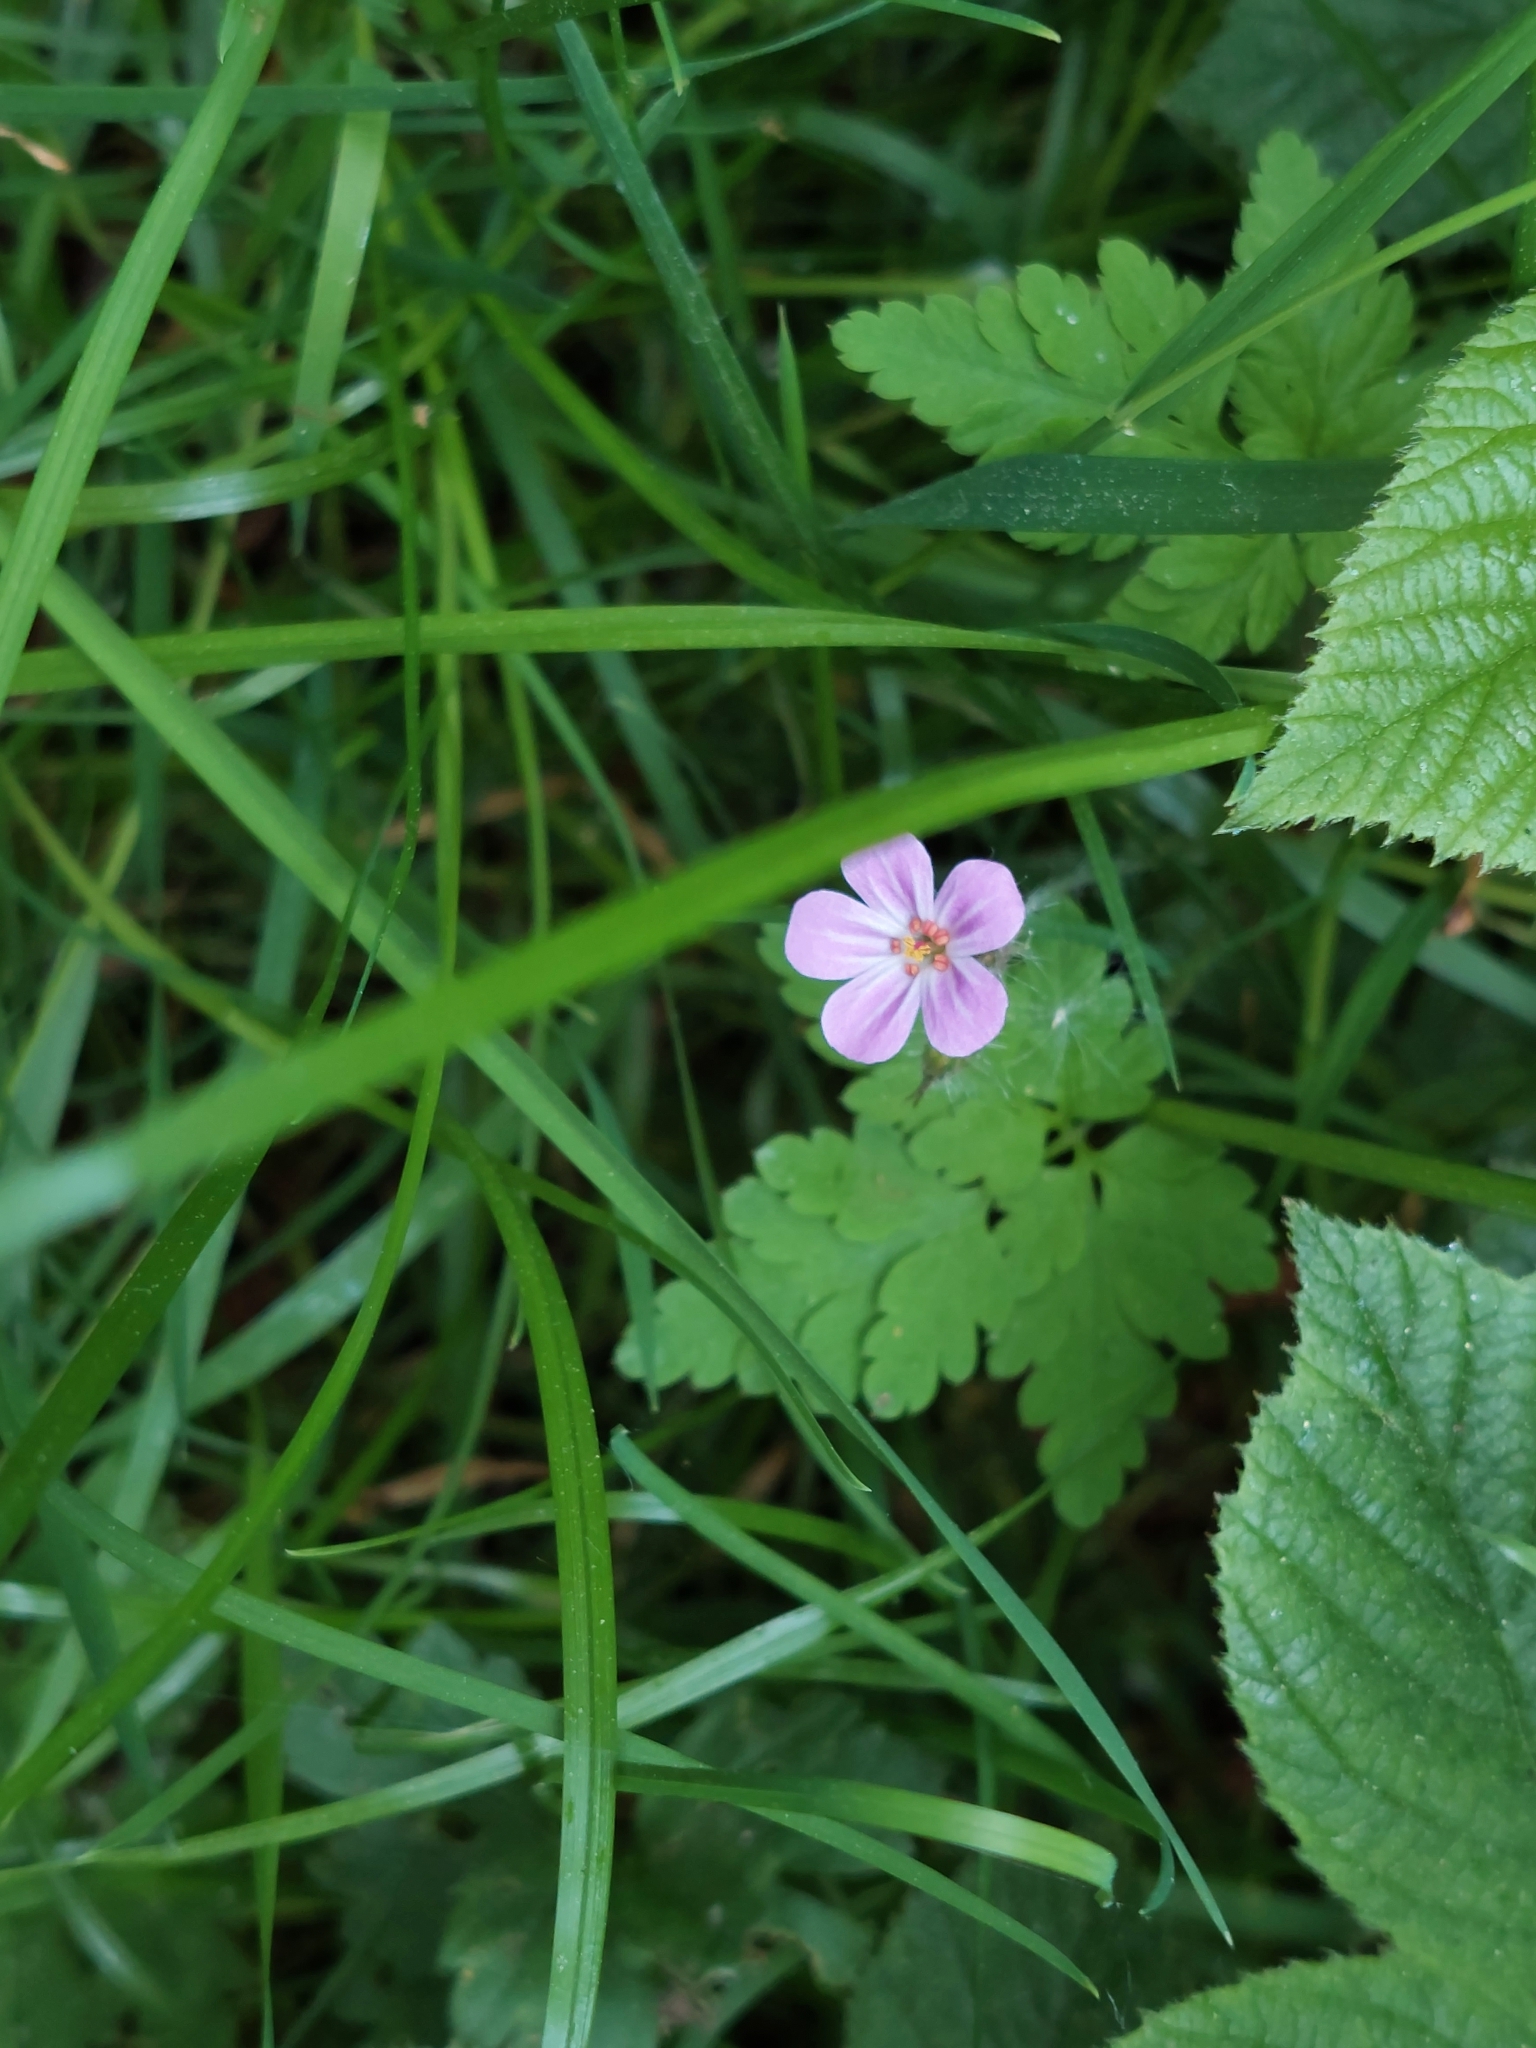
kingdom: Plantae
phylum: Tracheophyta
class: Magnoliopsida
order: Geraniales
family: Geraniaceae
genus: Geranium
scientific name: Geranium robertianum
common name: Herb-robert
